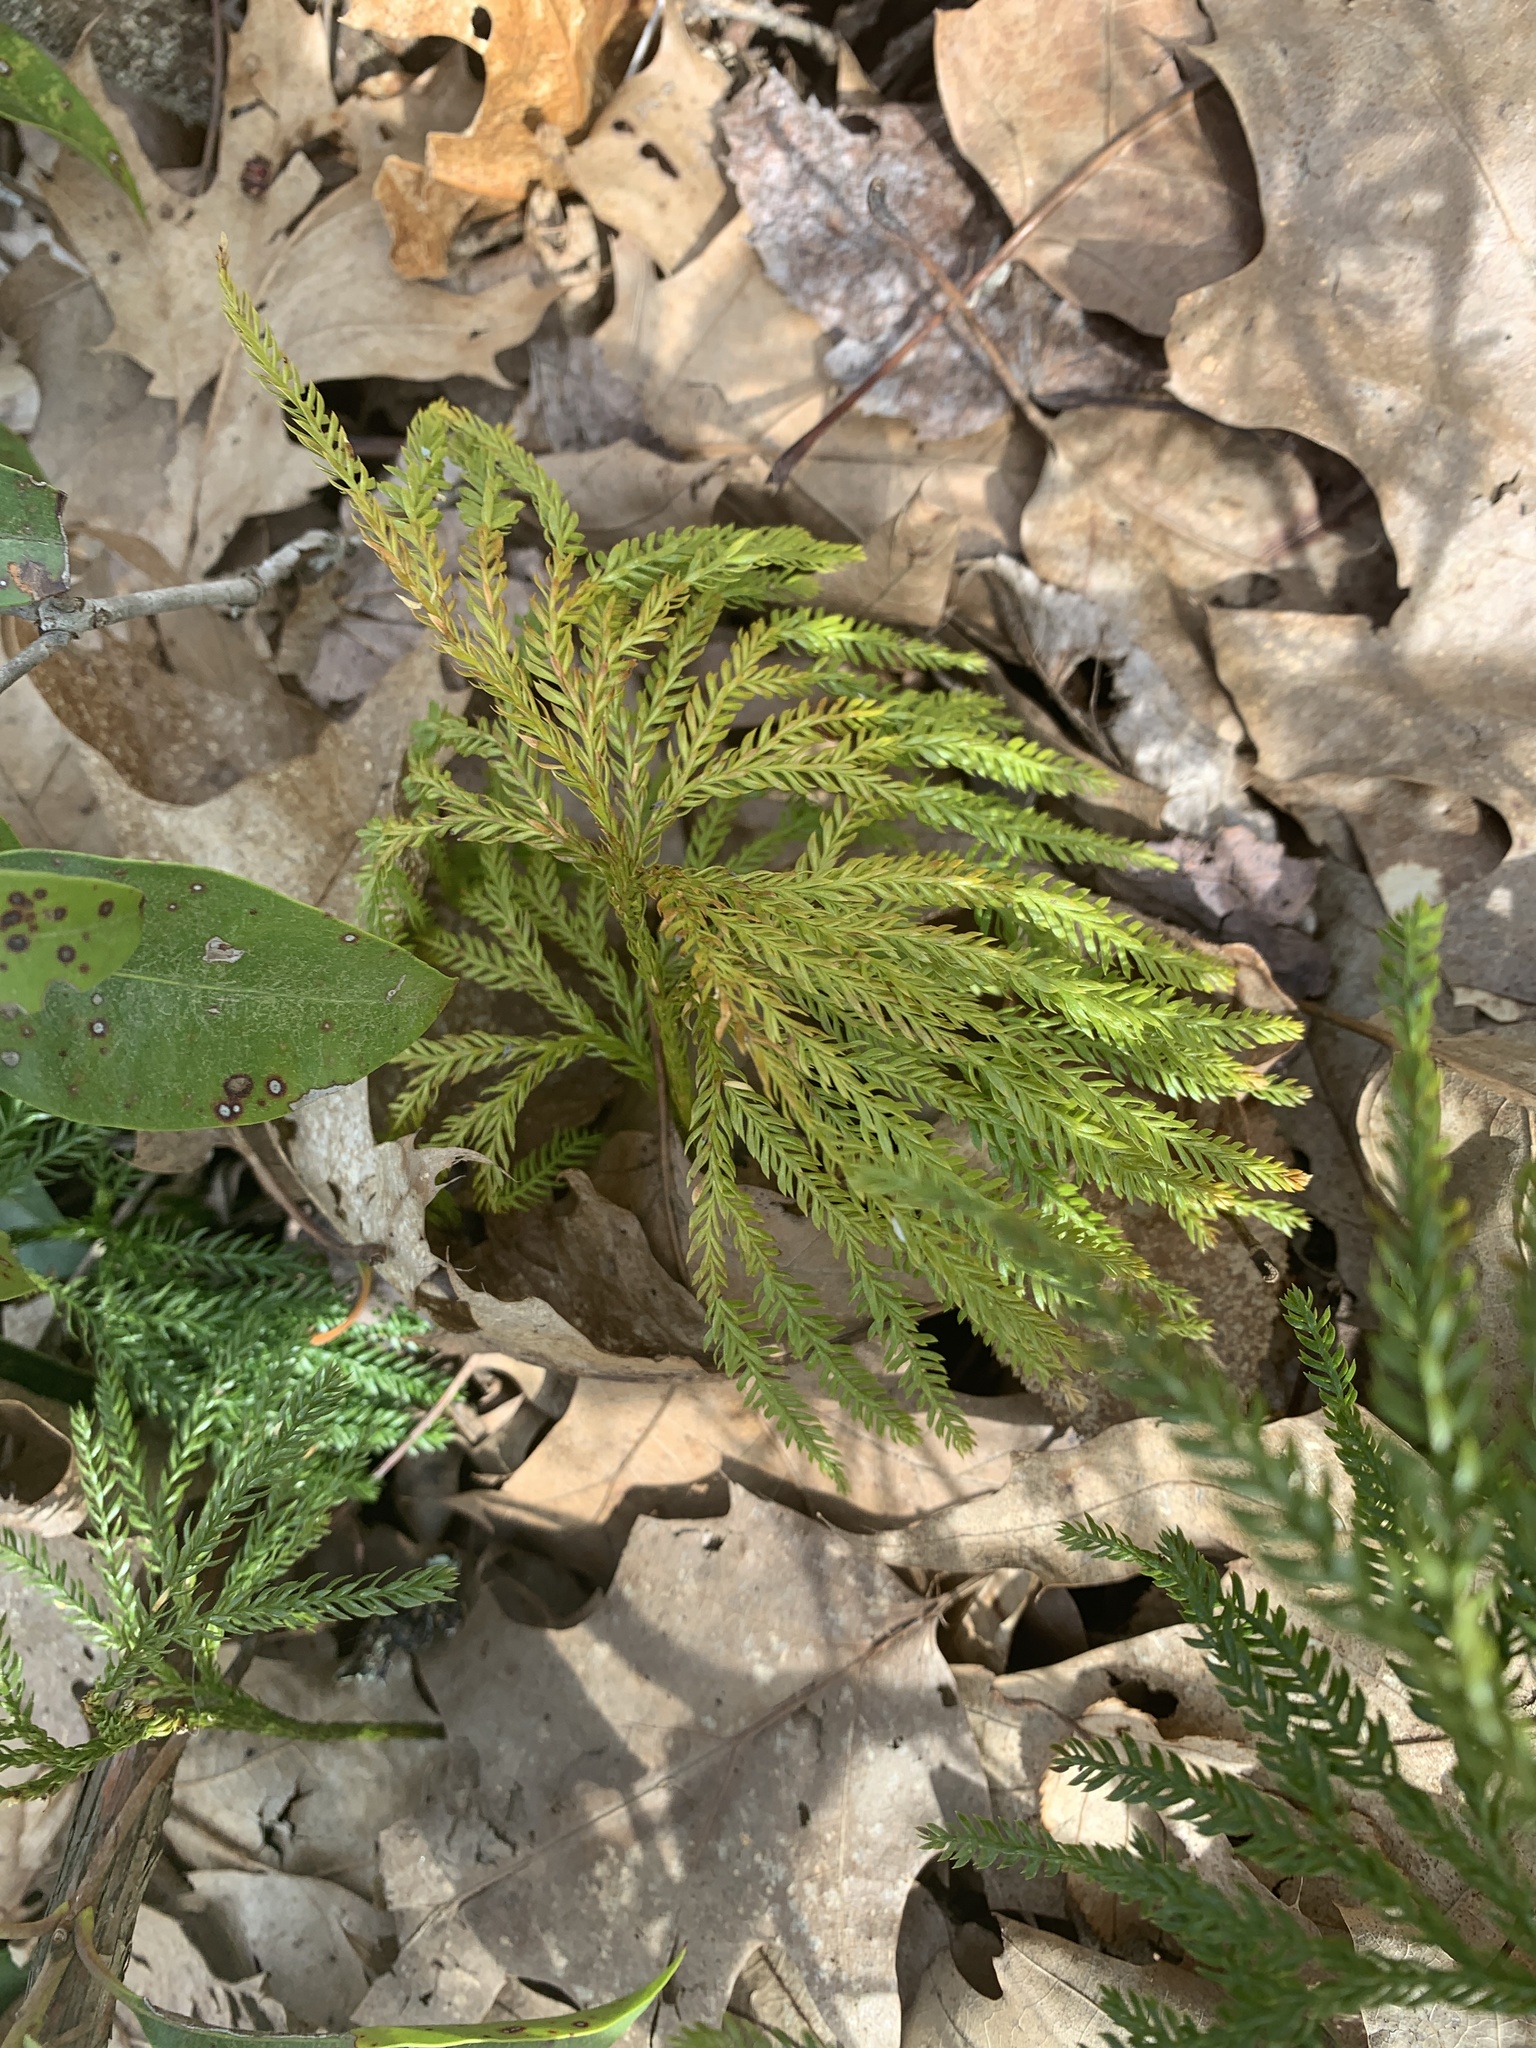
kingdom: Plantae
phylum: Tracheophyta
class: Lycopodiopsida
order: Lycopodiales
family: Lycopodiaceae
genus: Dendrolycopodium
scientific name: Dendrolycopodium obscurum
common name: Common ground-pine
